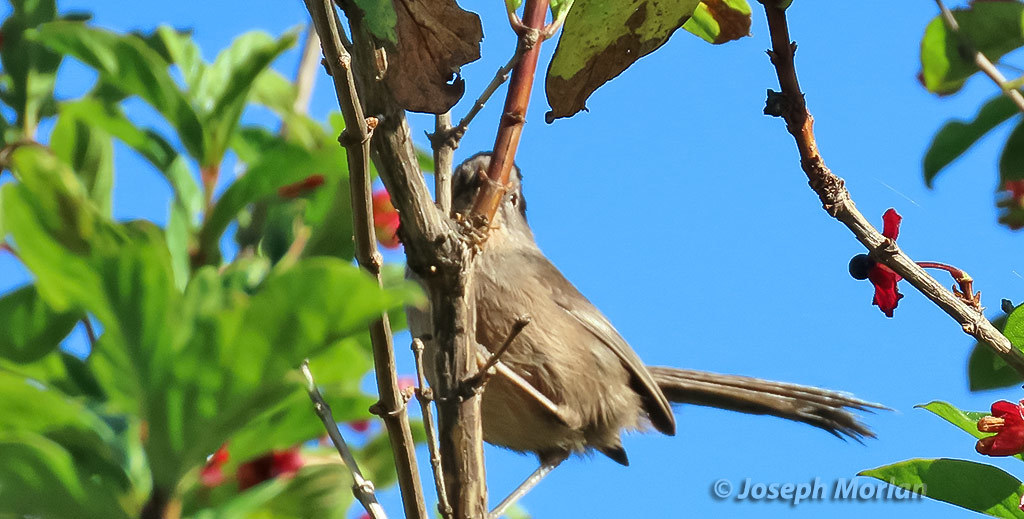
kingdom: Animalia
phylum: Chordata
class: Aves
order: Passeriformes
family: Sylviidae
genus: Chamaea
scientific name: Chamaea fasciata
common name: Wrentit
